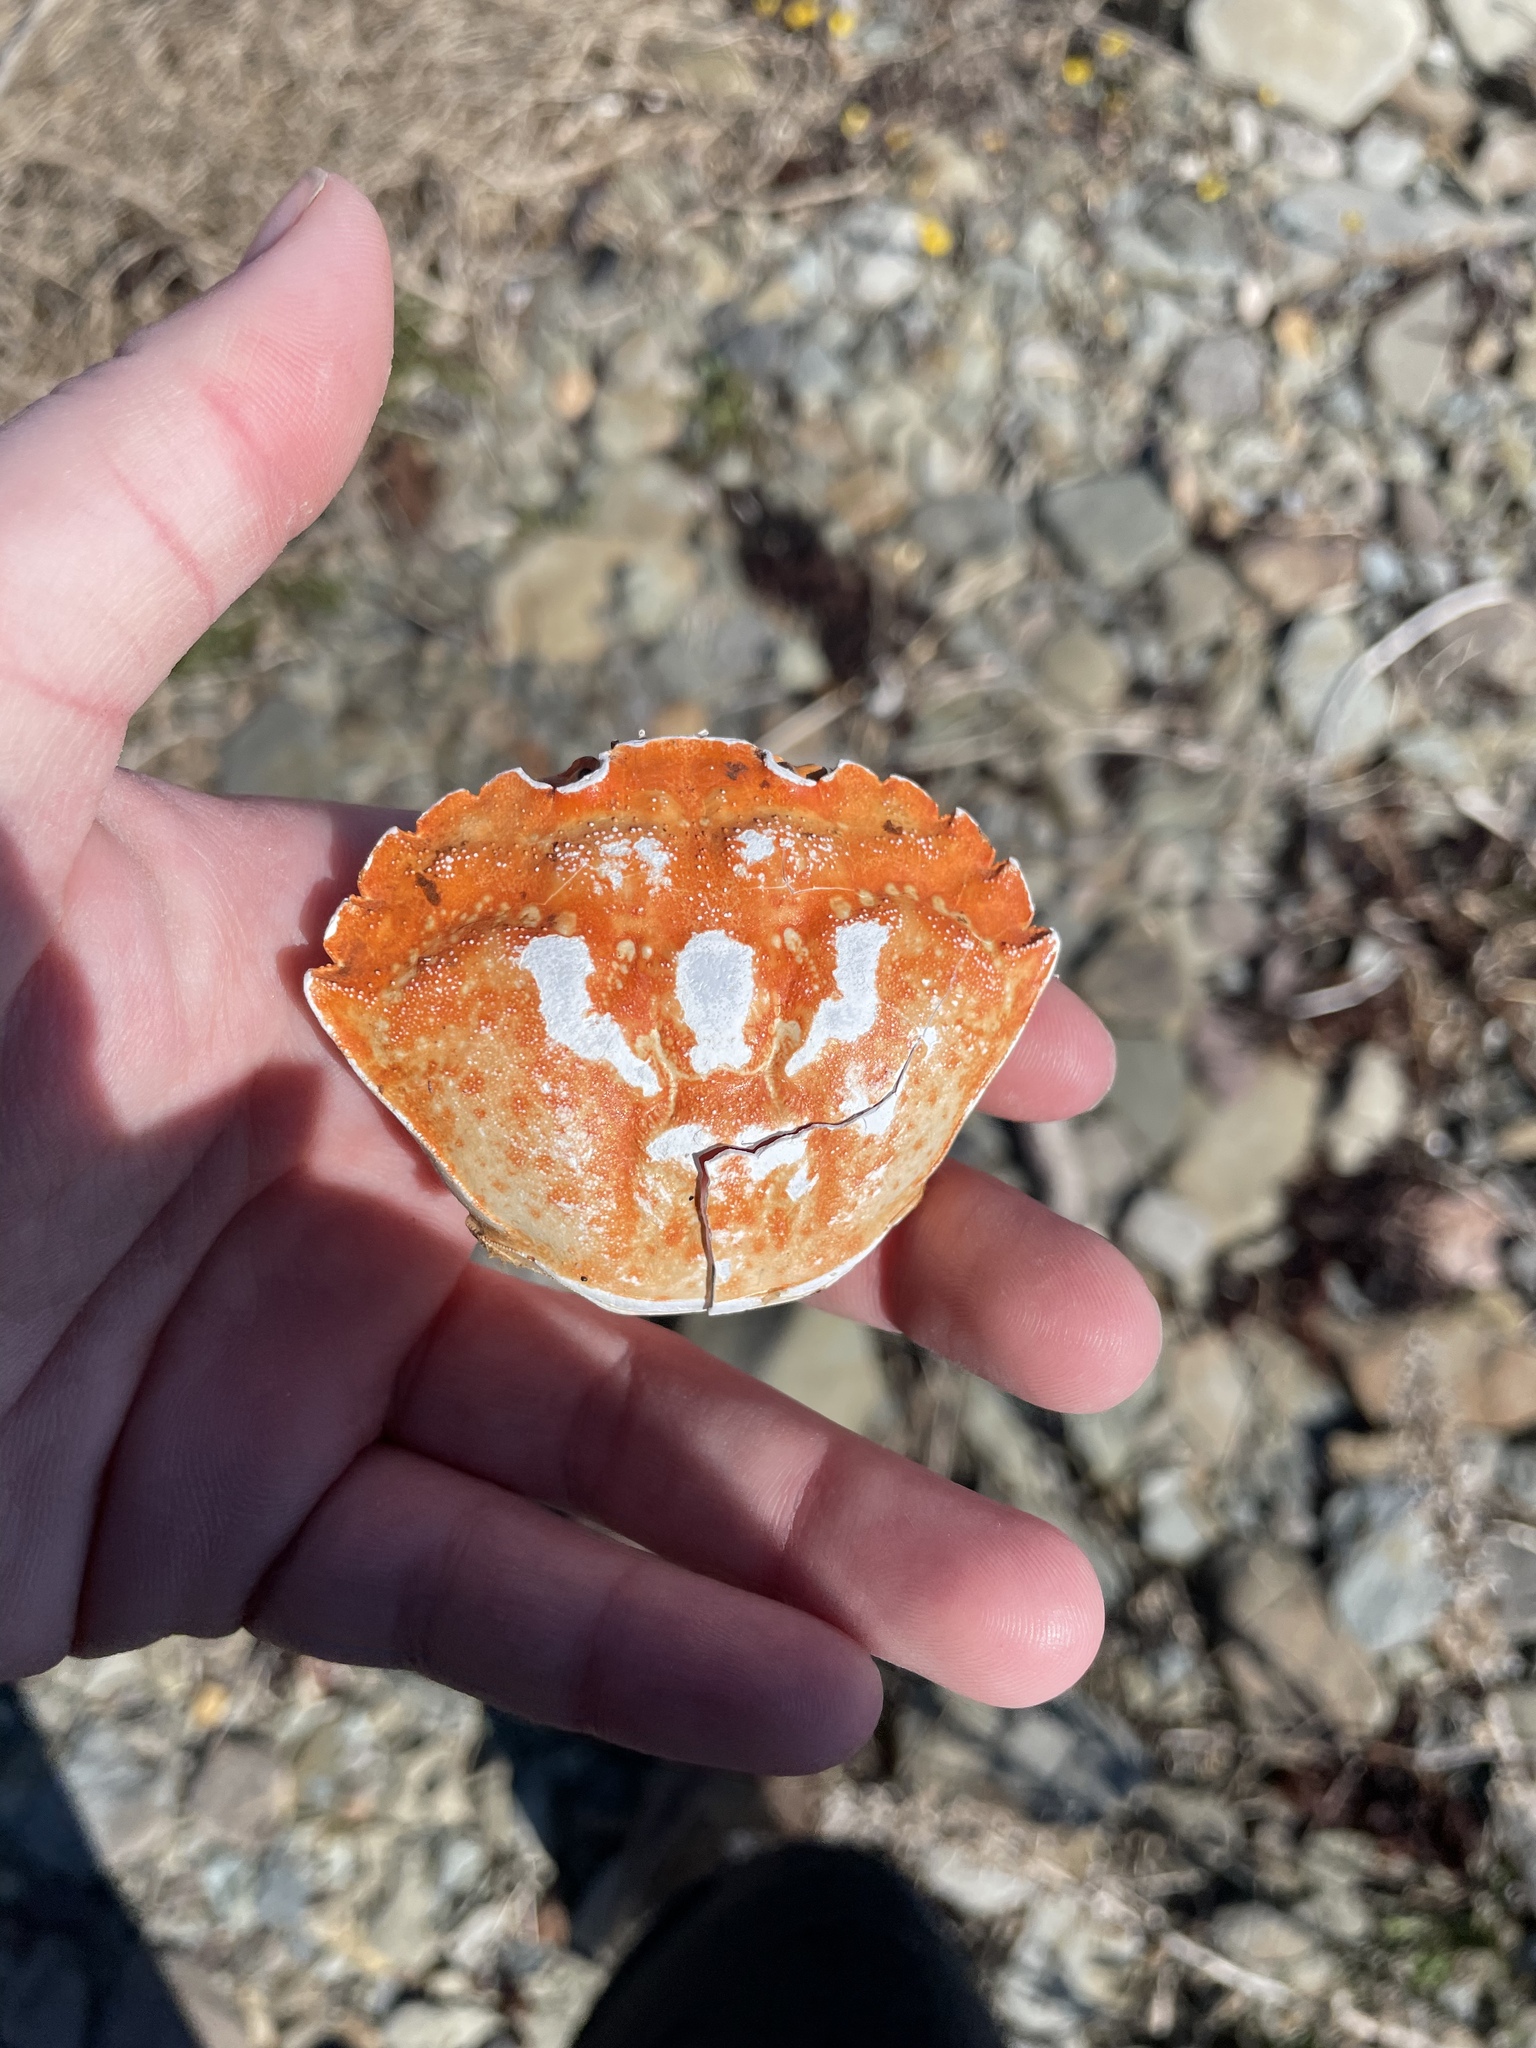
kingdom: Animalia
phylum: Arthropoda
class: Malacostraca
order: Decapoda
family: Carcinidae
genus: Carcinus
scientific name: Carcinus maenas
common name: European green crab
